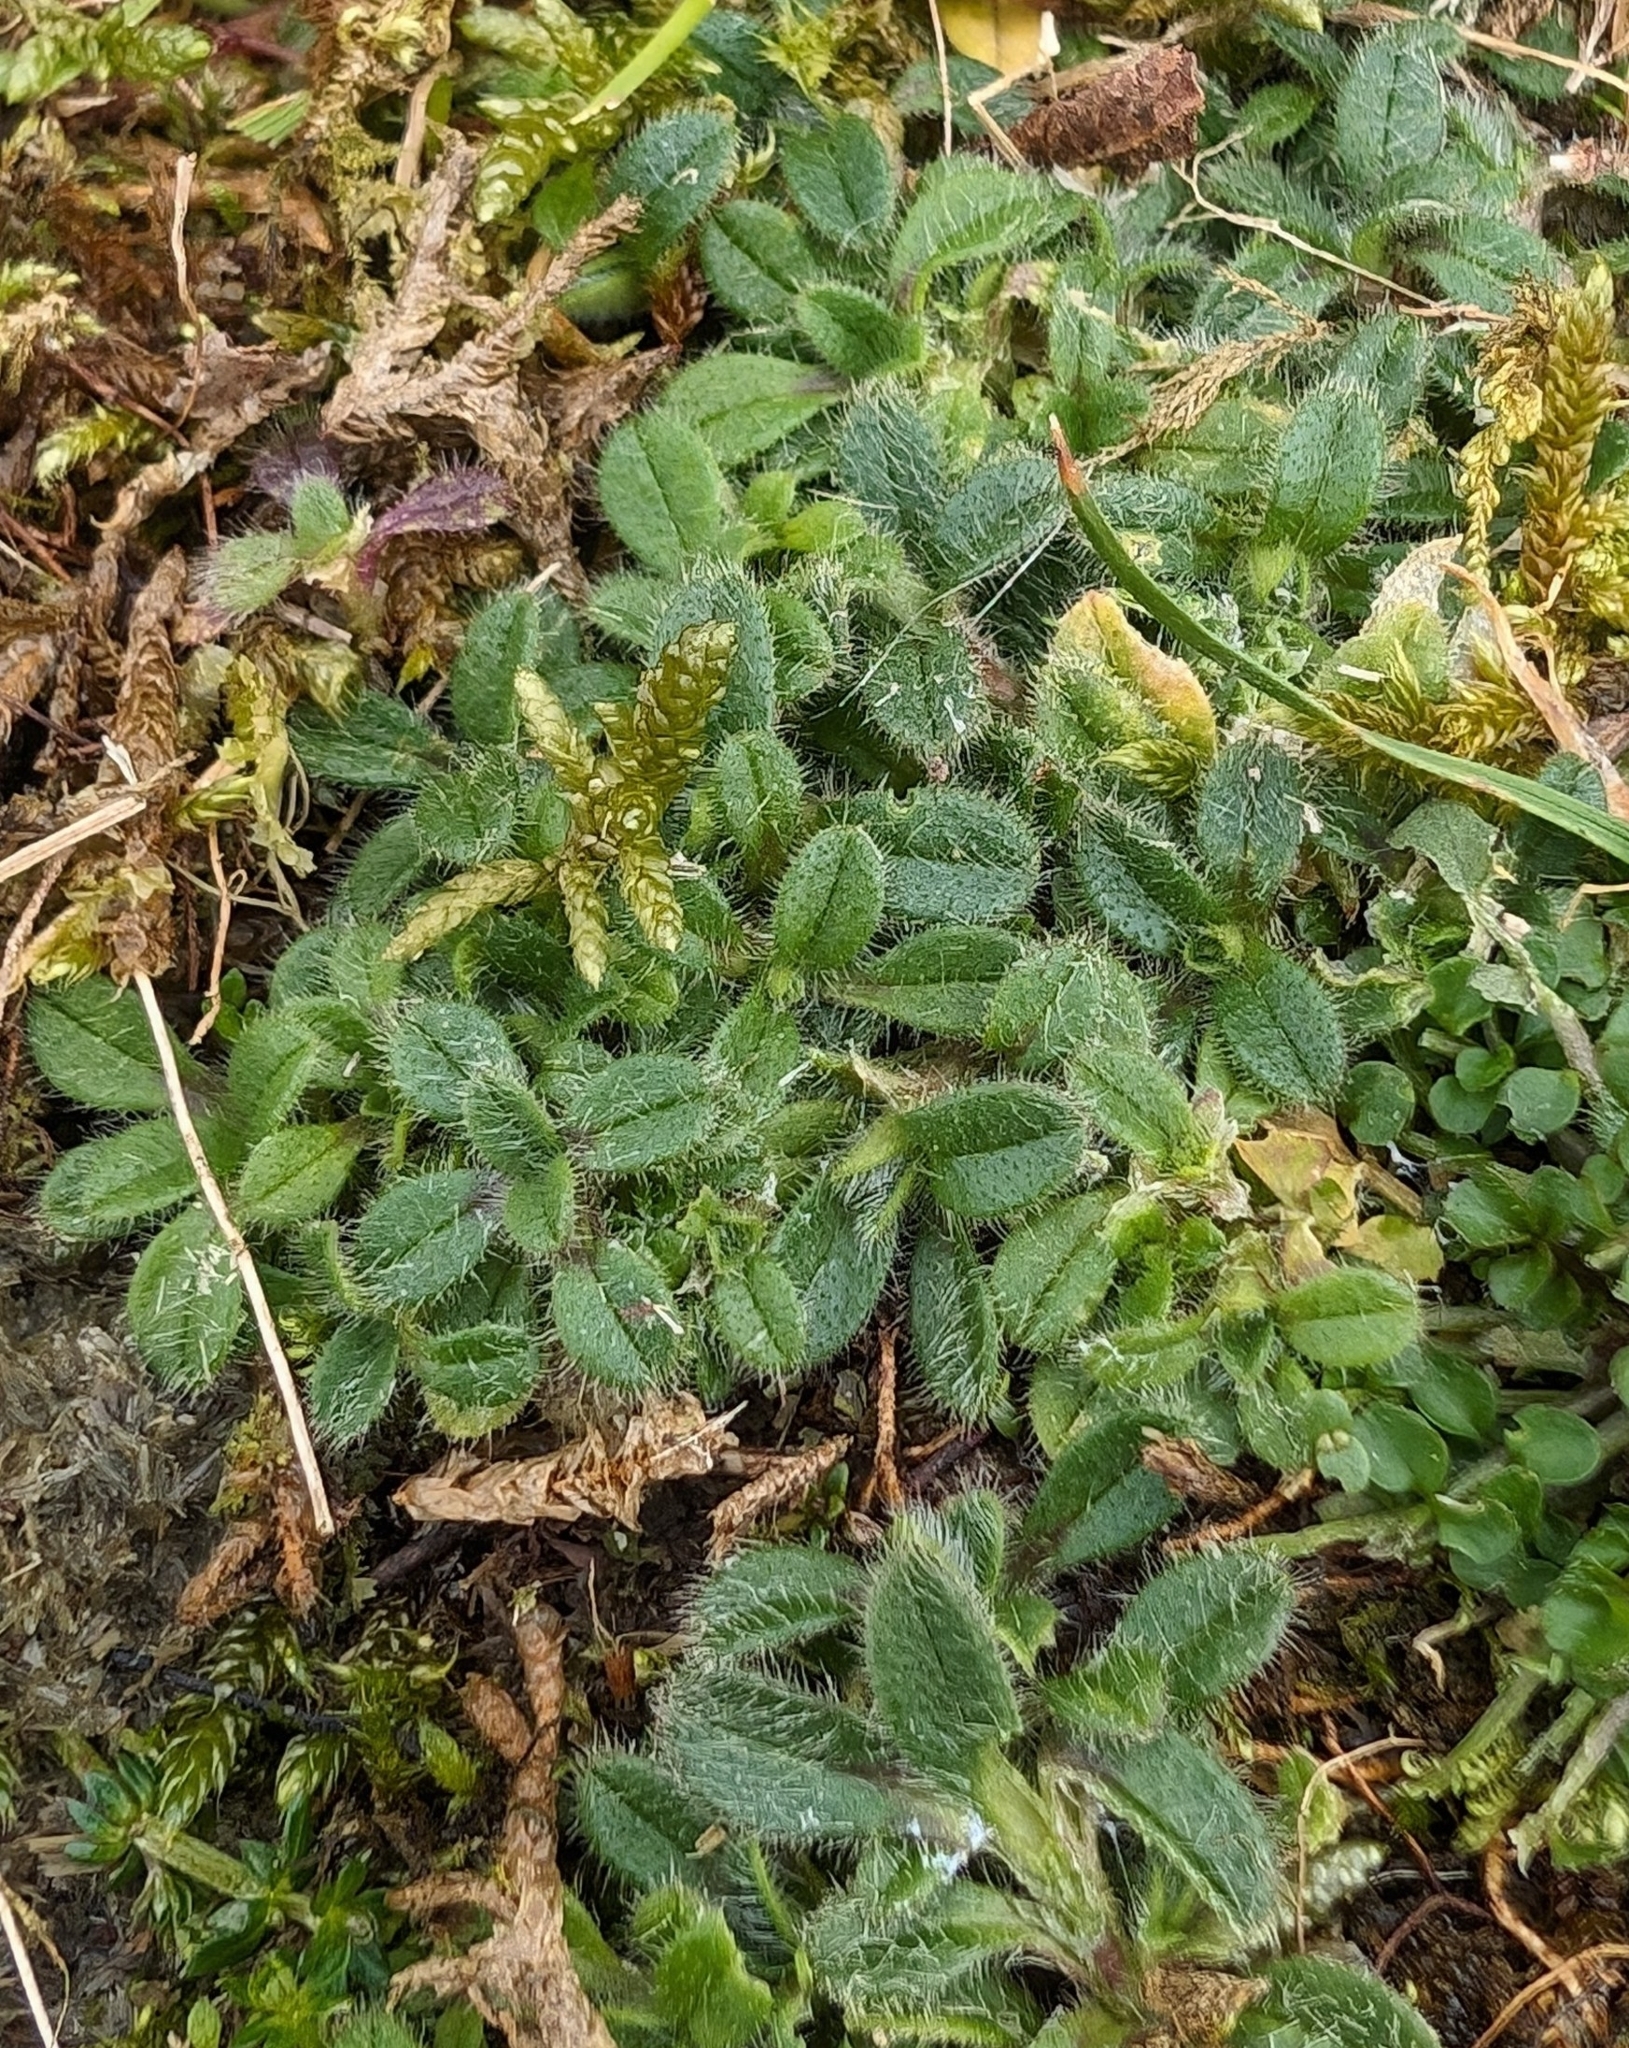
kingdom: Plantae
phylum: Tracheophyta
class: Magnoliopsida
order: Caryophyllales
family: Caryophyllaceae
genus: Cerastium
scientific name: Cerastium fontanum
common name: Common mouse-ear
